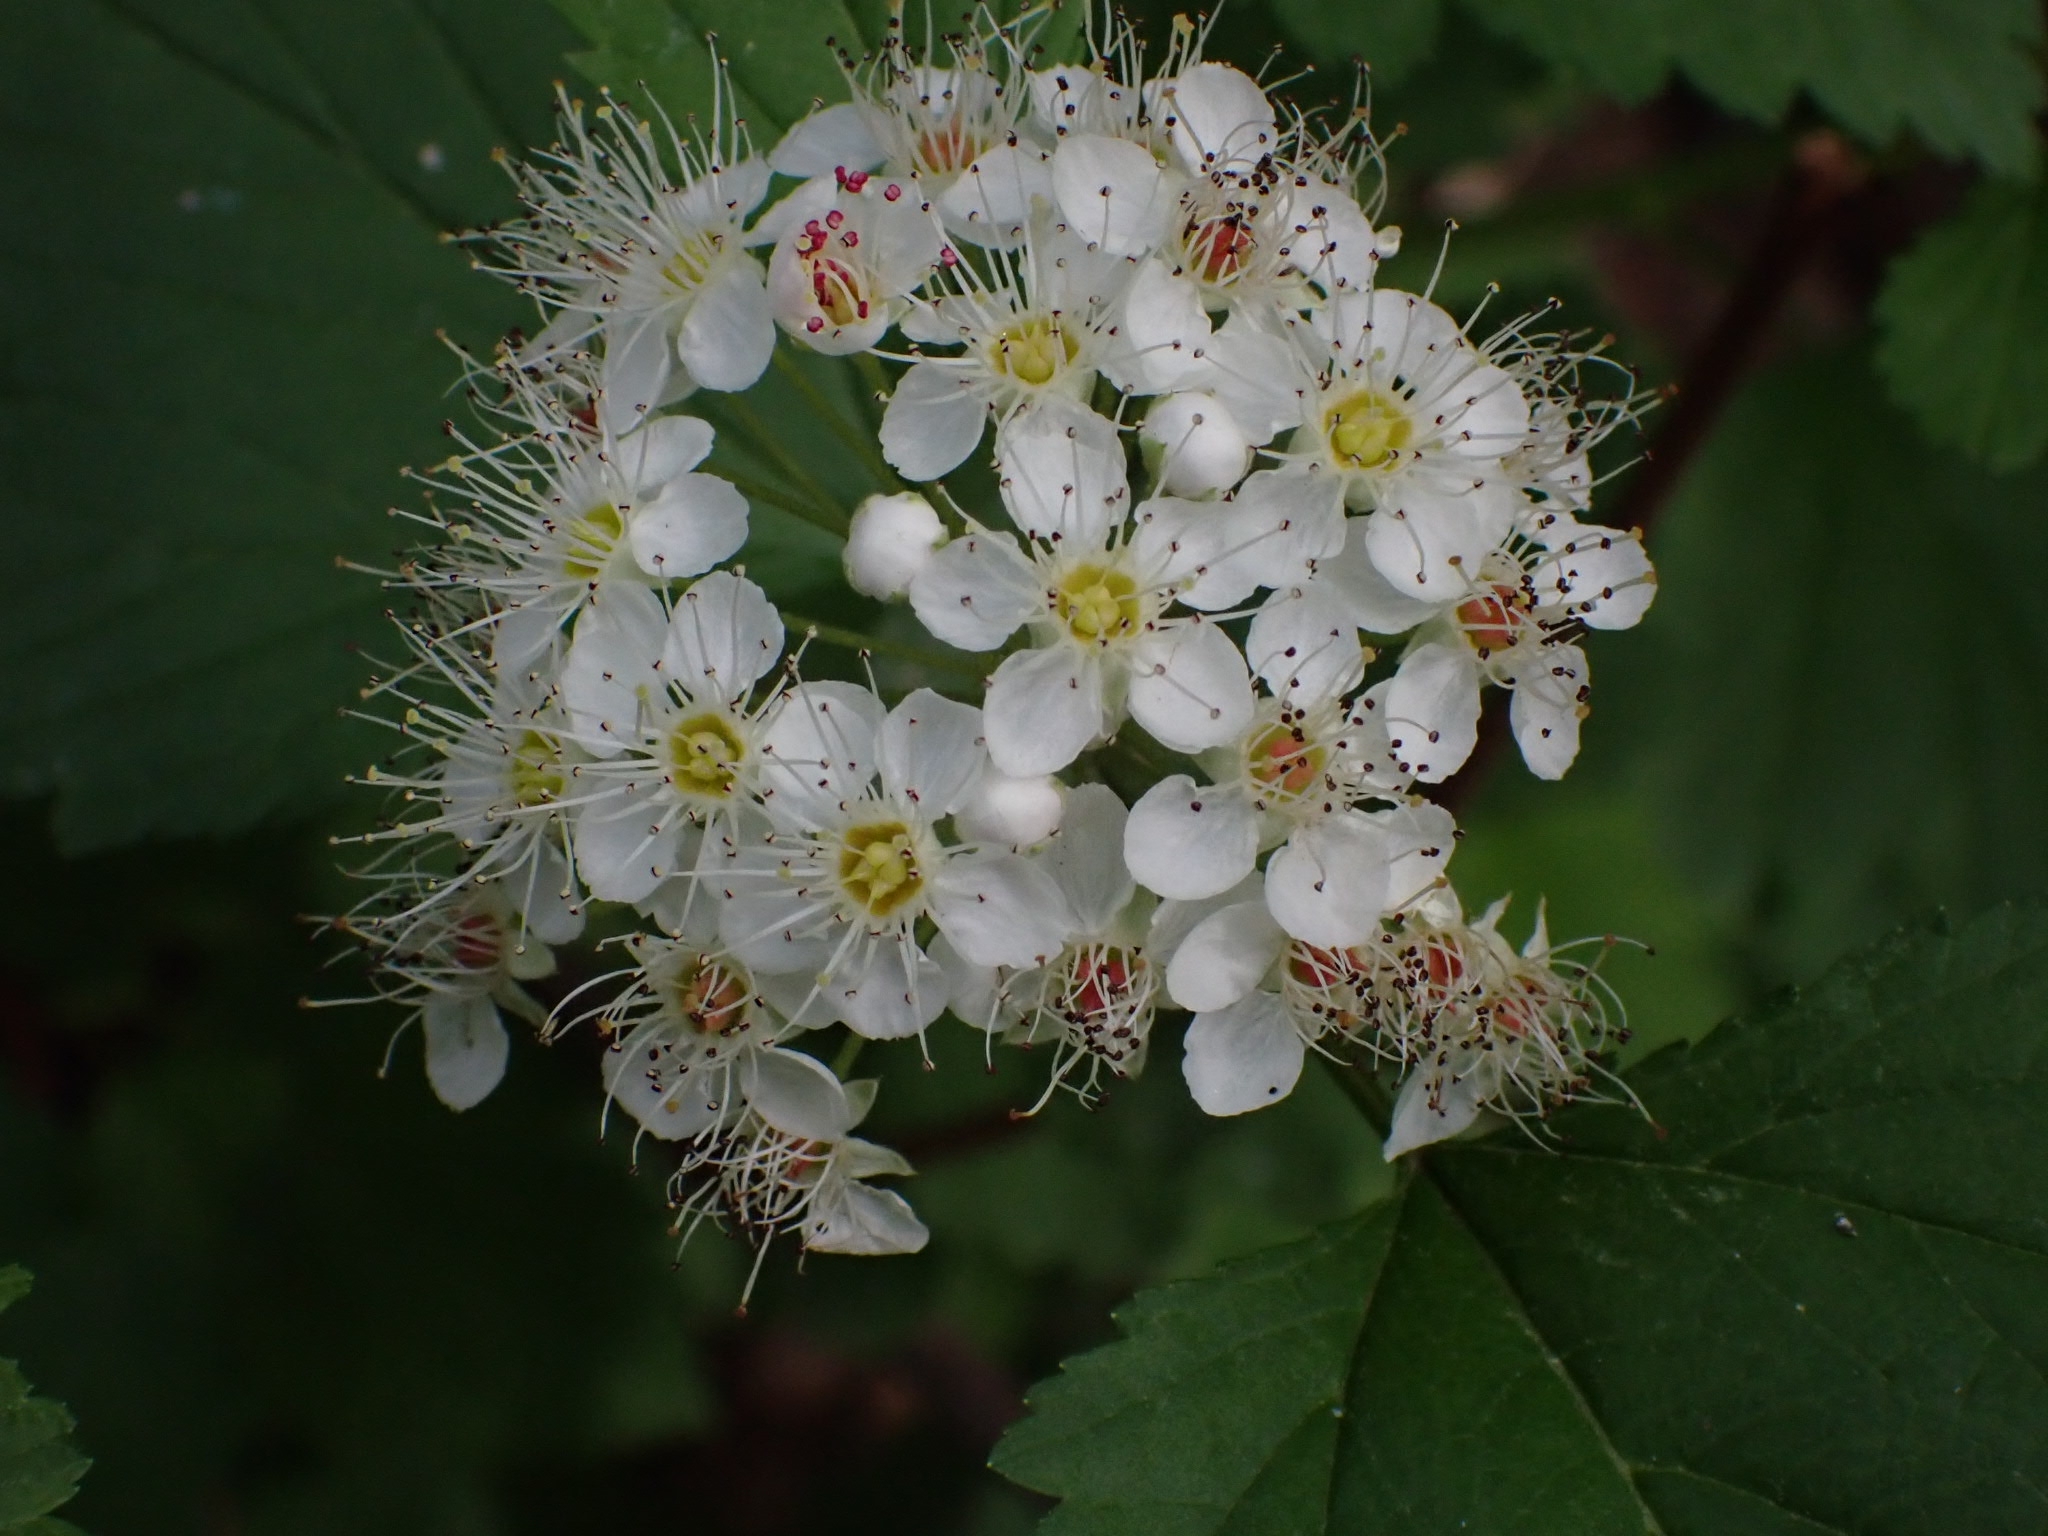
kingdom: Plantae
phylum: Tracheophyta
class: Magnoliopsida
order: Rosales
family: Rosaceae
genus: Crataegus
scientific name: Crataegus sanguinea
